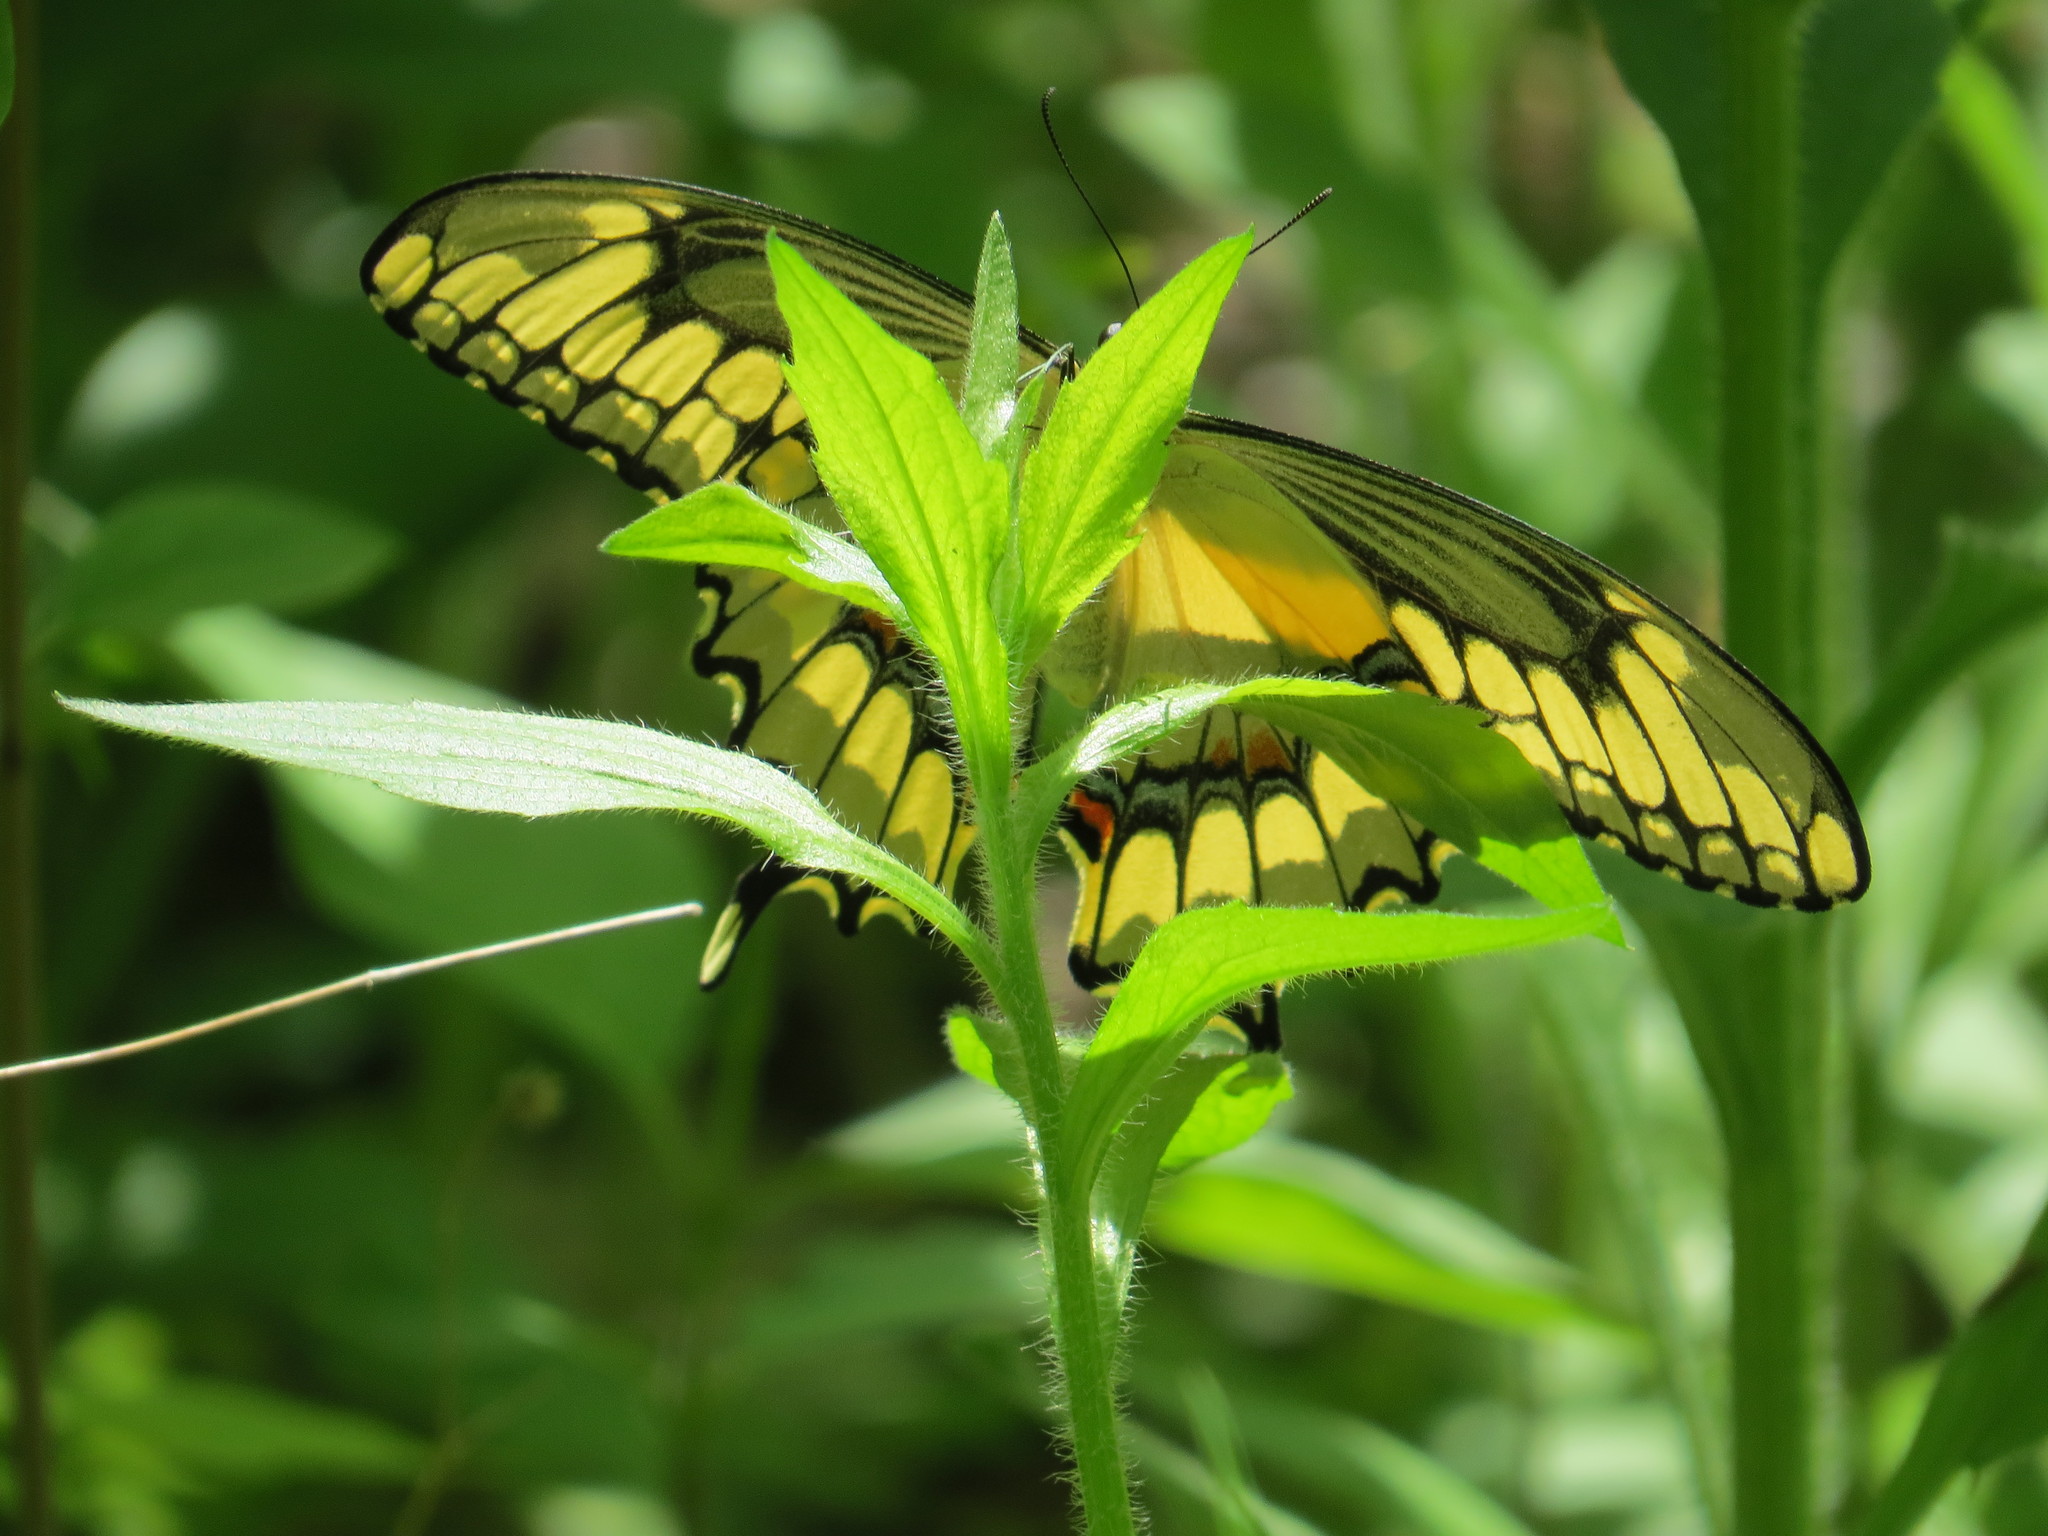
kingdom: Animalia
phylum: Arthropoda
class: Insecta
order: Lepidoptera
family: Papilionidae
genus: Papilio
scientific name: Papilio cresphontes
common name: Giant swallowtail
